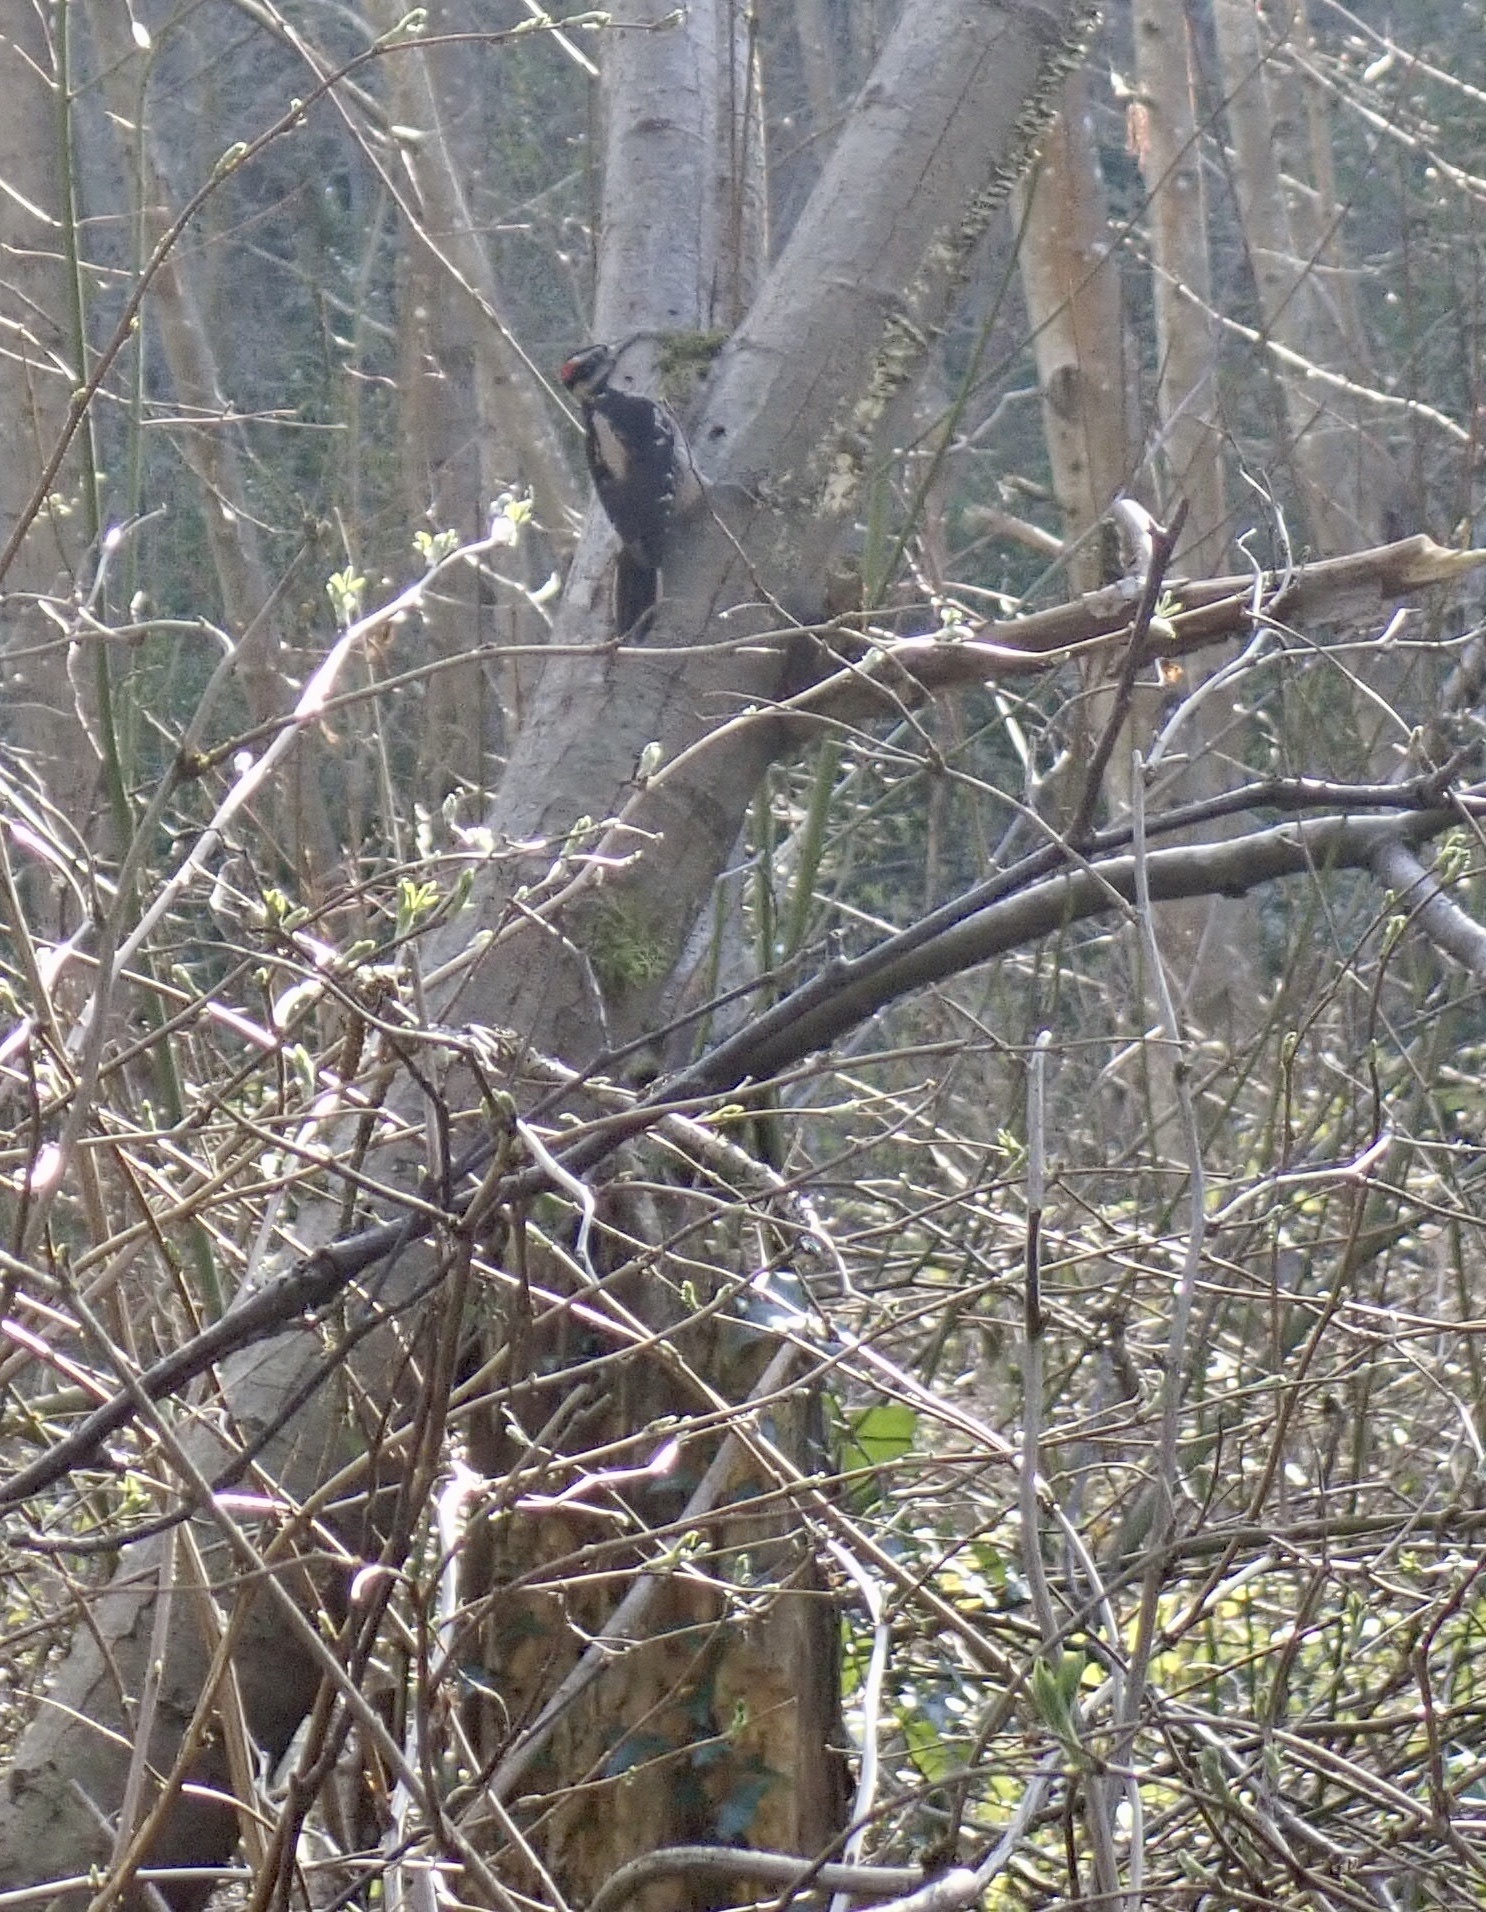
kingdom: Animalia
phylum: Chordata
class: Aves
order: Piciformes
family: Picidae
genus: Leuconotopicus
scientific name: Leuconotopicus villosus
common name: Hairy woodpecker
